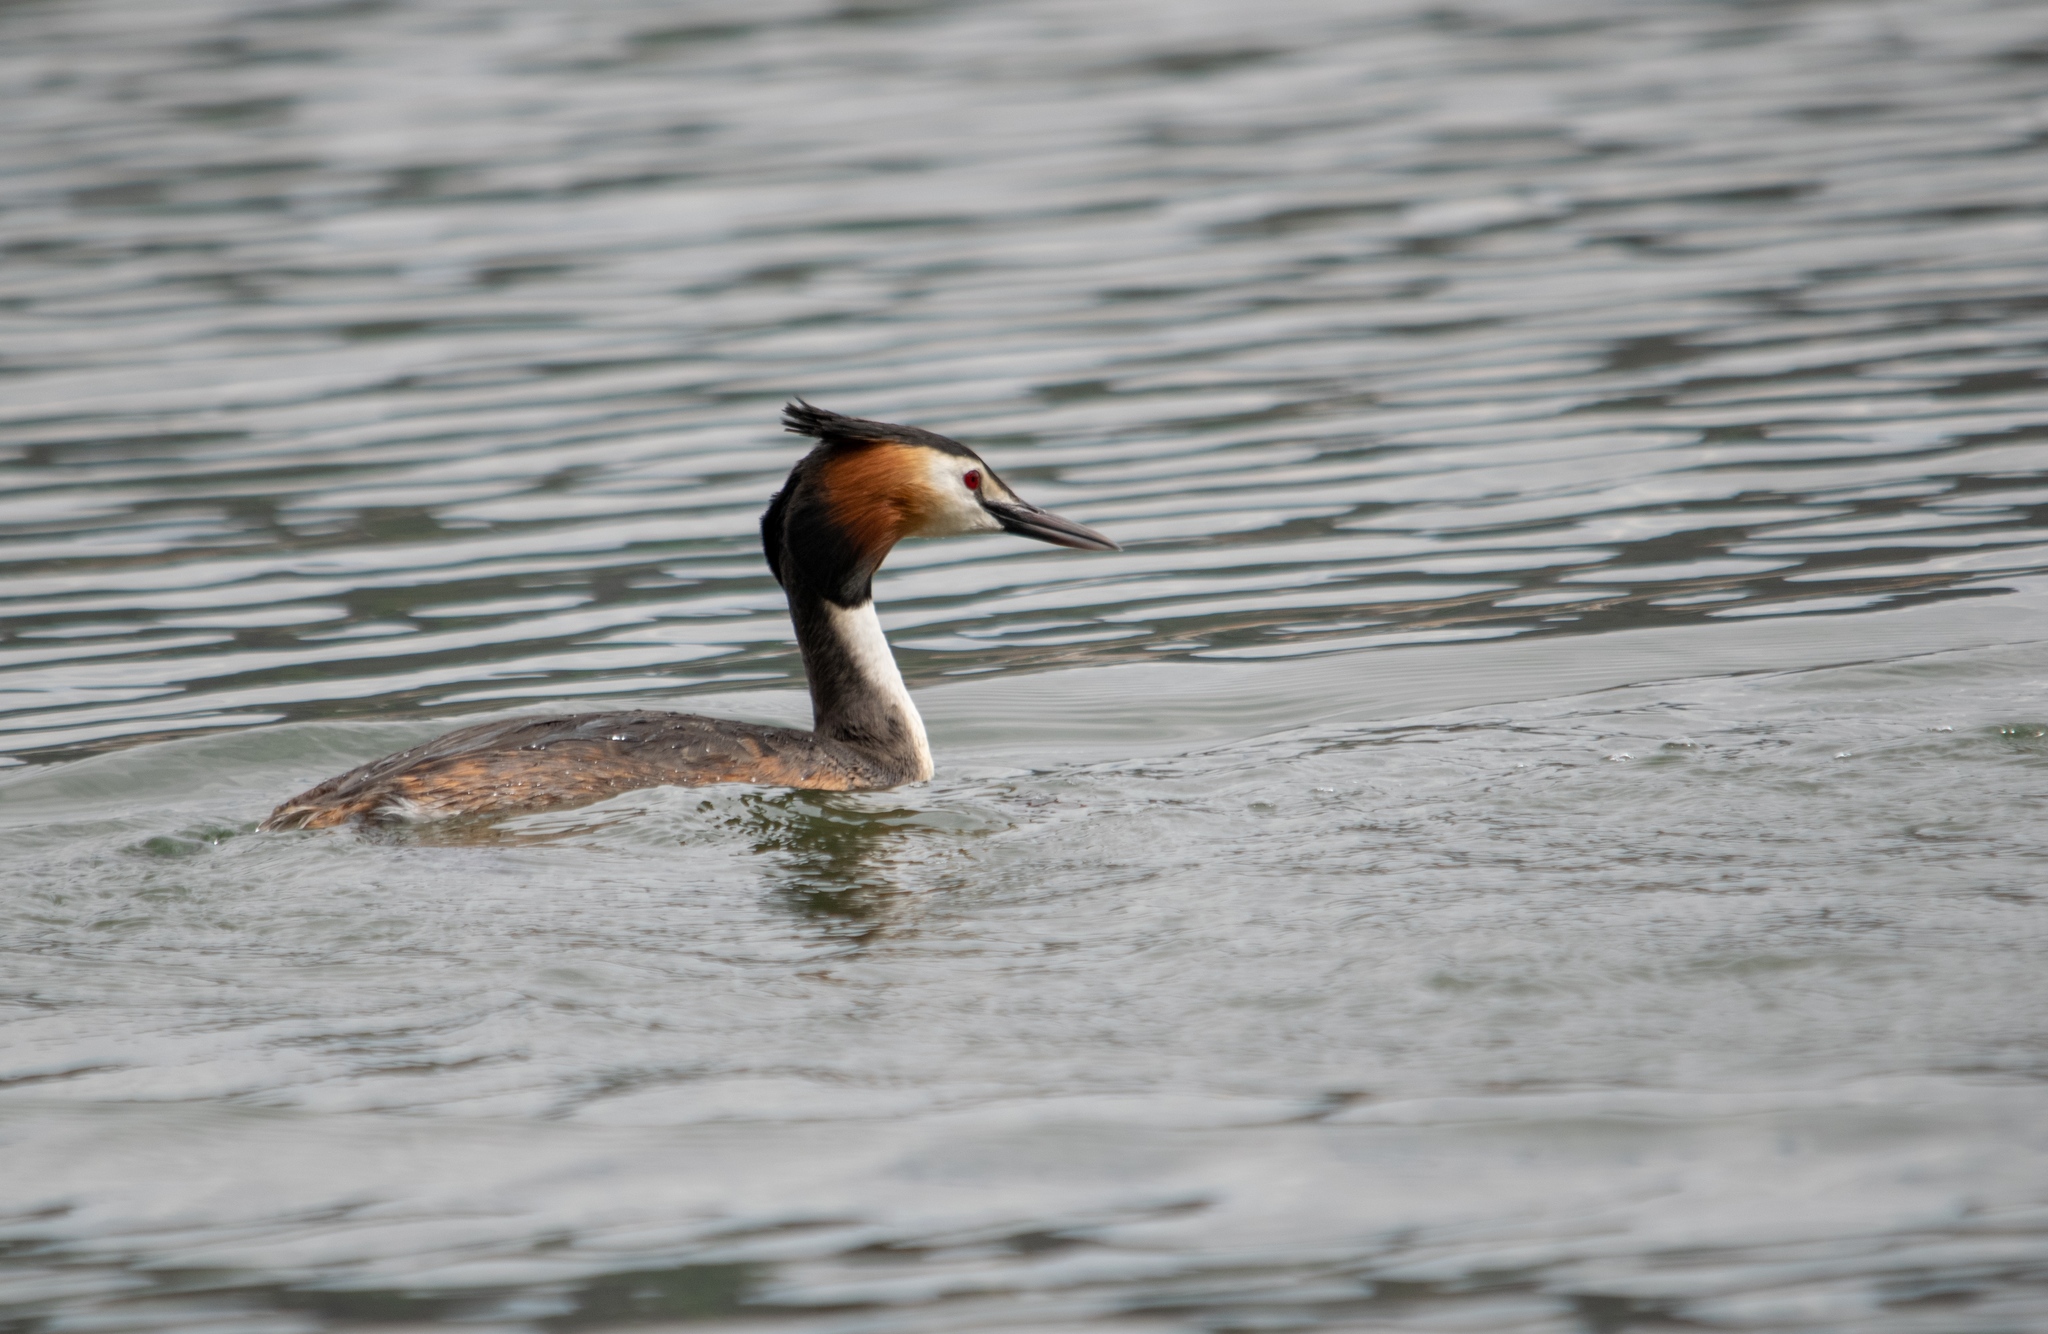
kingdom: Animalia
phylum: Chordata
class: Aves
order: Podicipediformes
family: Podicipedidae
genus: Podiceps
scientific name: Podiceps cristatus
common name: Great crested grebe
